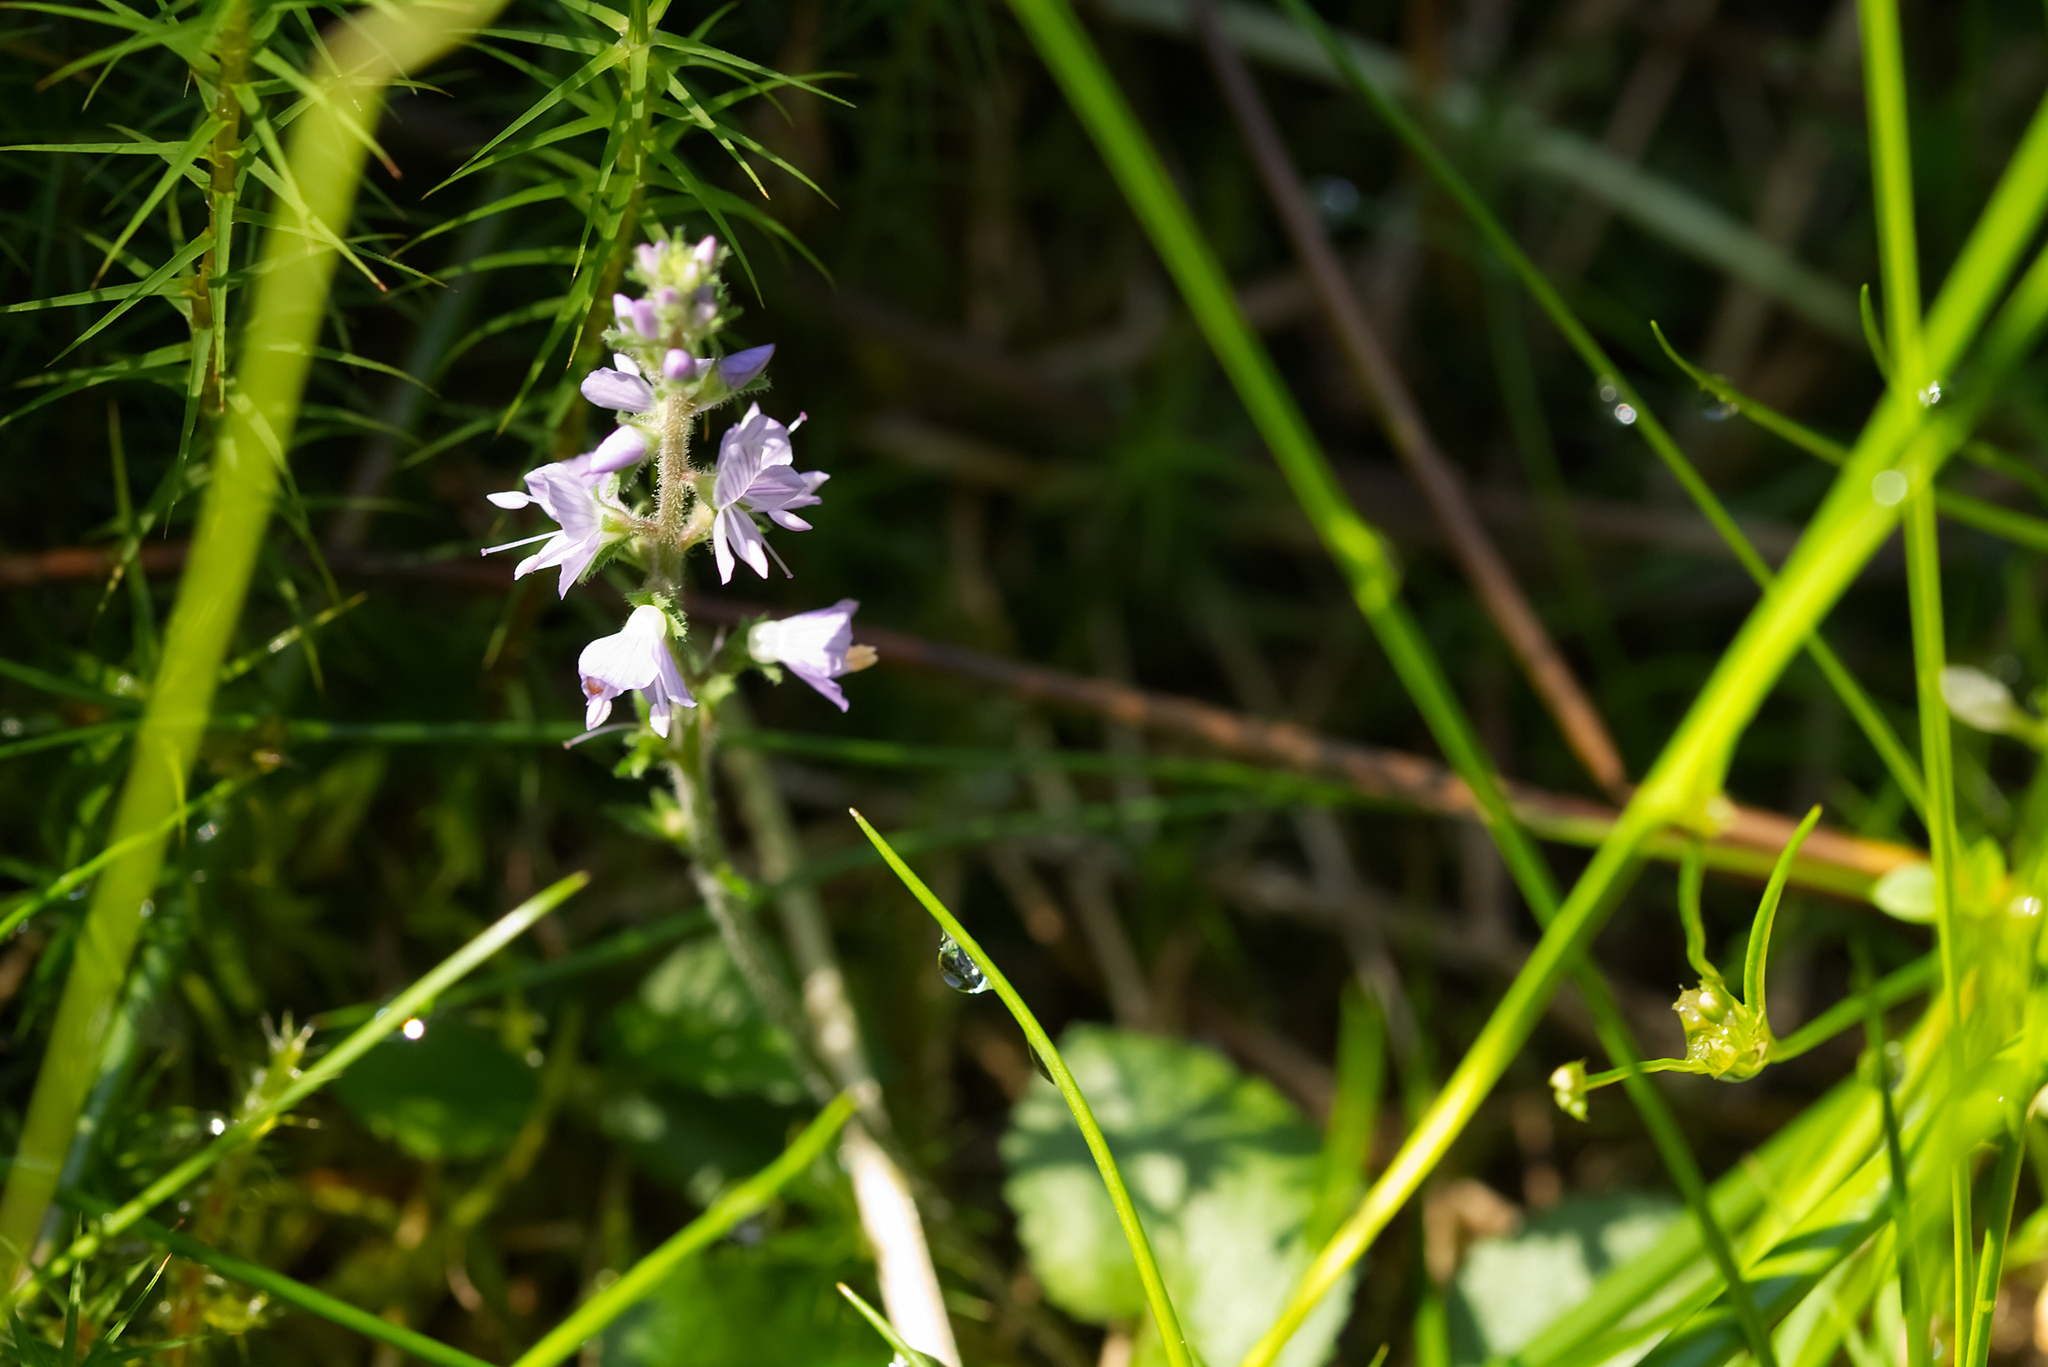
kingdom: Plantae
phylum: Tracheophyta
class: Magnoliopsida
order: Lamiales
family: Plantaginaceae
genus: Veronica
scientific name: Veronica officinalis
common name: Common speedwell
